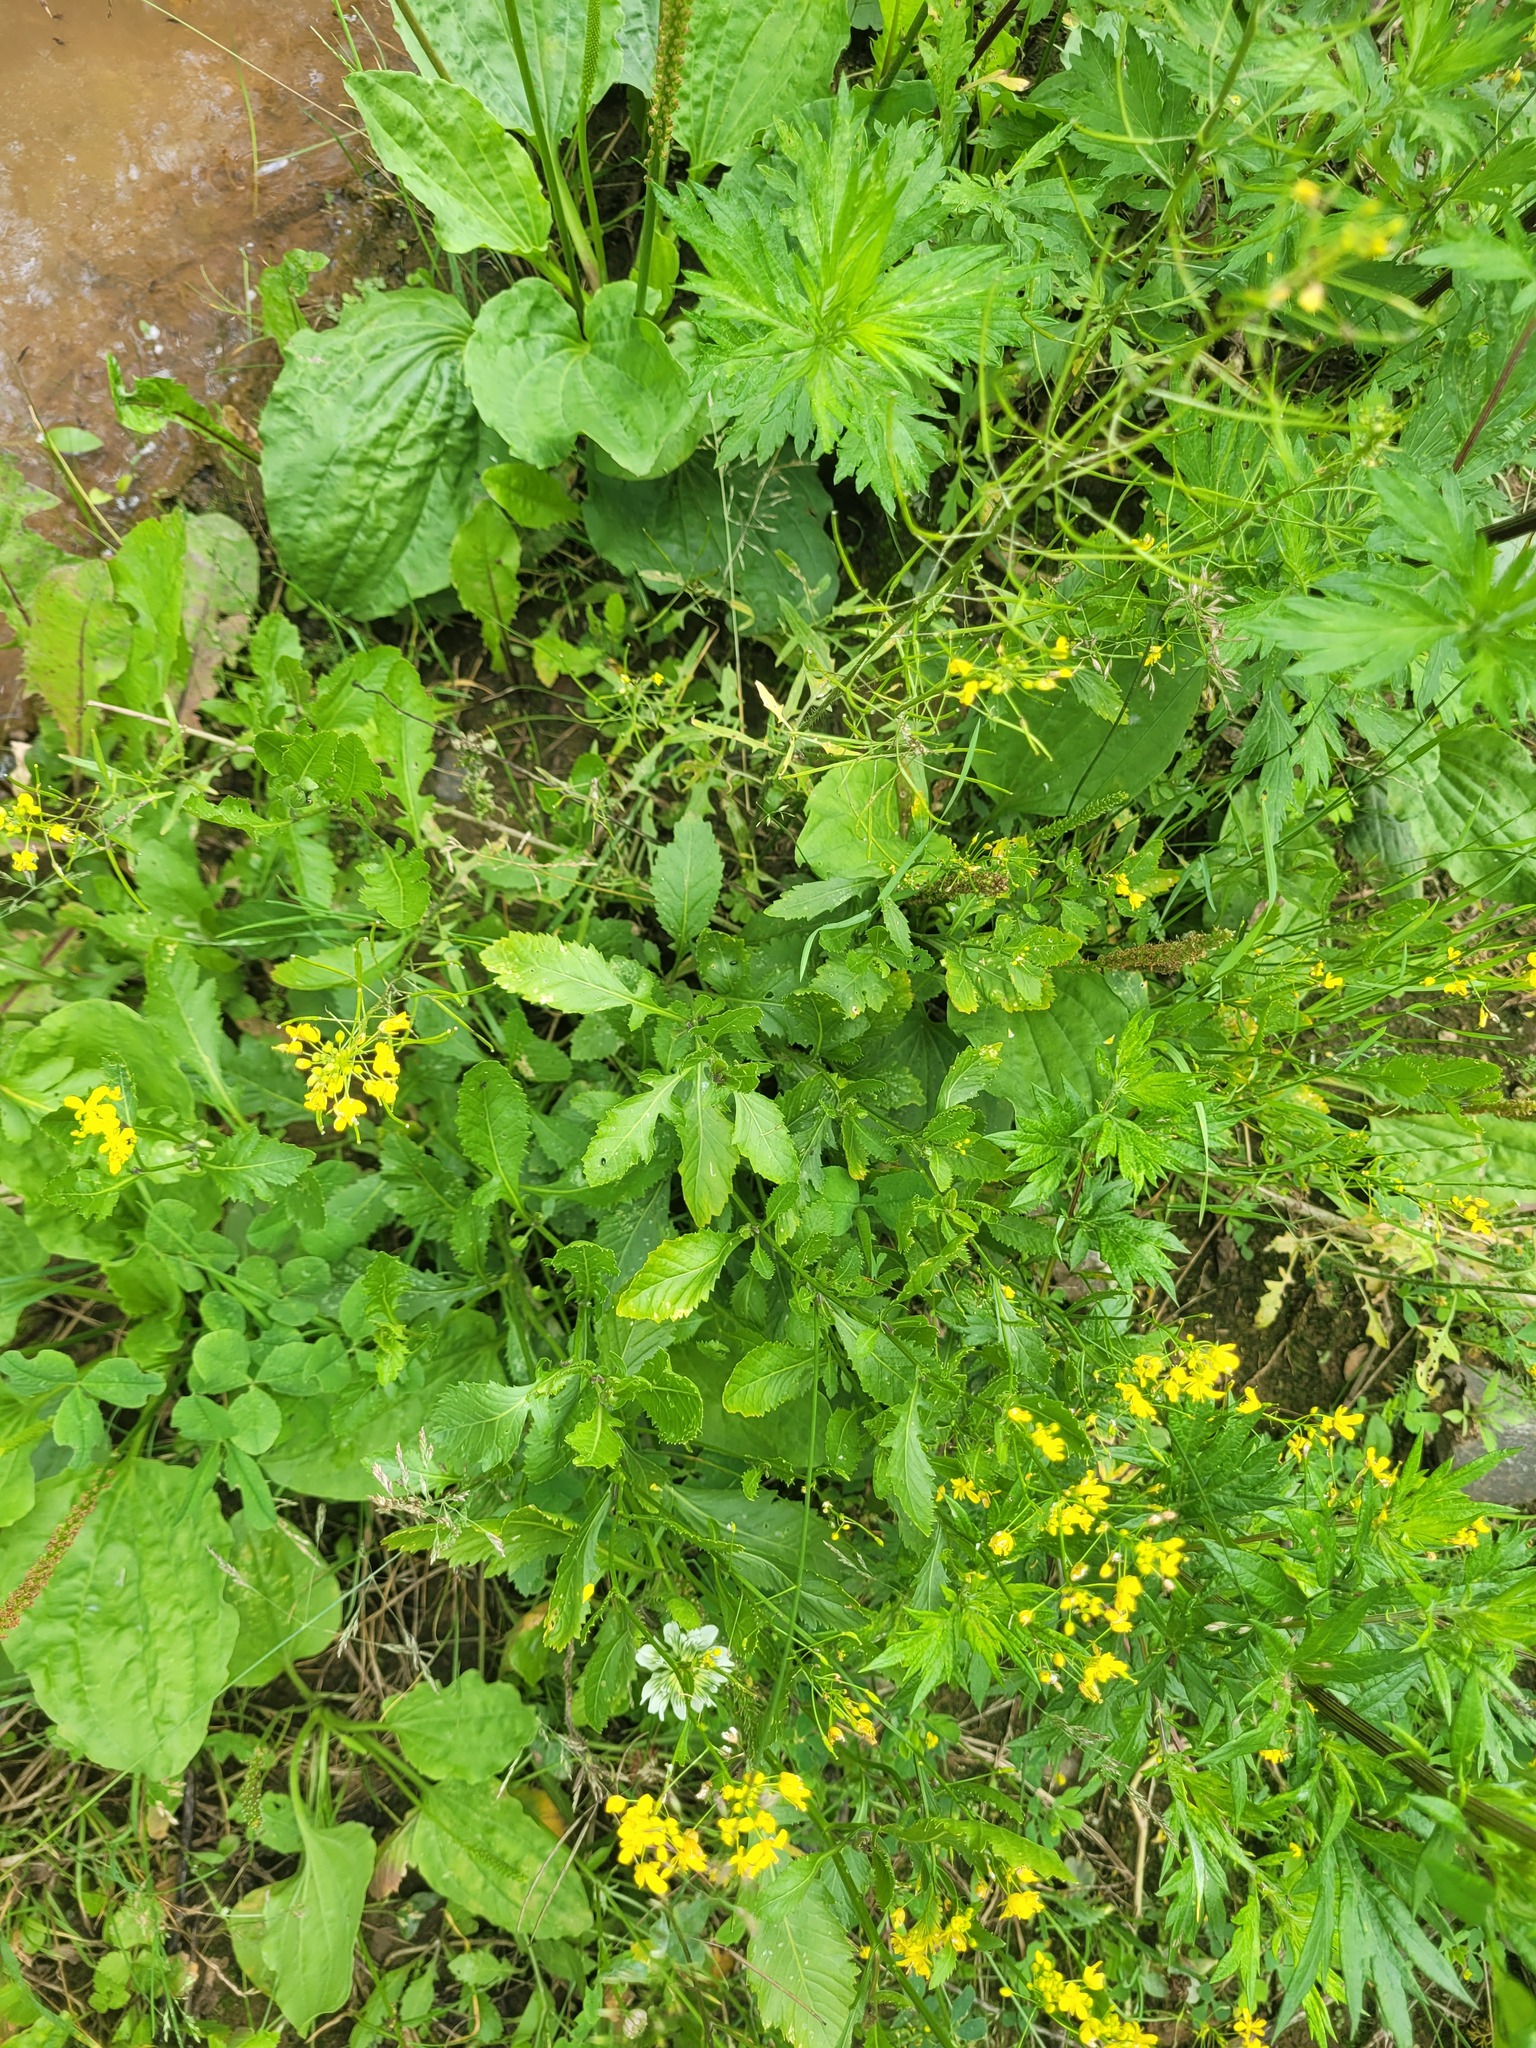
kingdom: Plantae
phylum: Tracheophyta
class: Magnoliopsida
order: Brassicales
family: Brassicaceae
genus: Rorippa
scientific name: Rorippa anceps
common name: Rorippa
